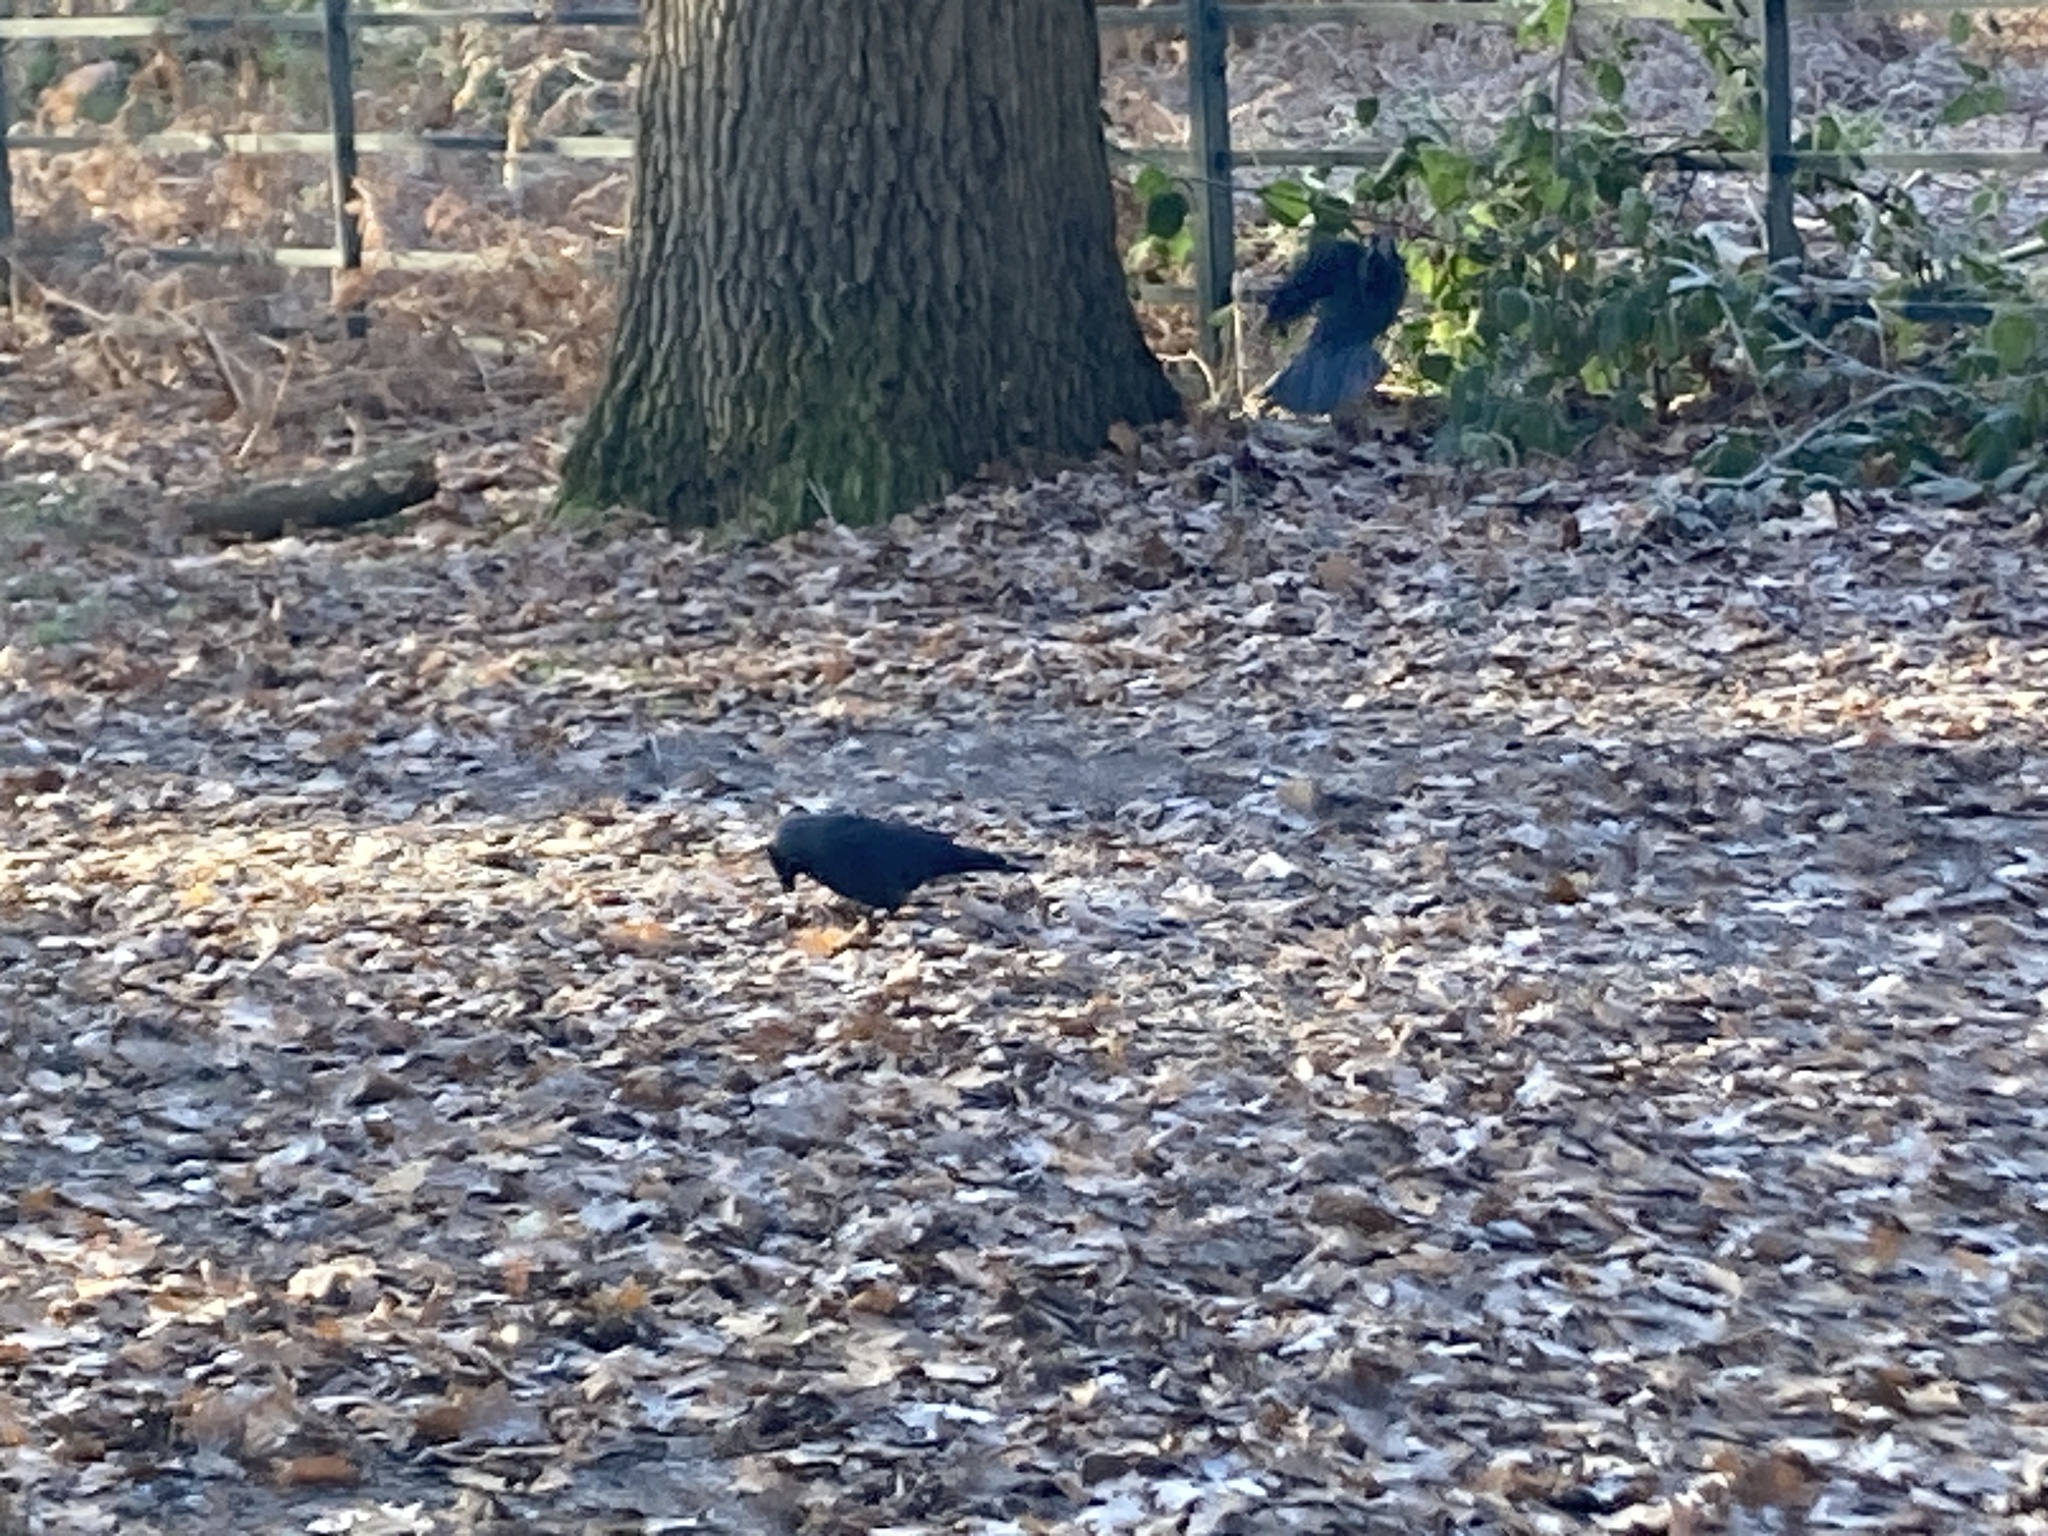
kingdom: Animalia
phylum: Chordata
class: Aves
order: Passeriformes
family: Corvidae
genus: Coloeus
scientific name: Coloeus monedula
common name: Western jackdaw
